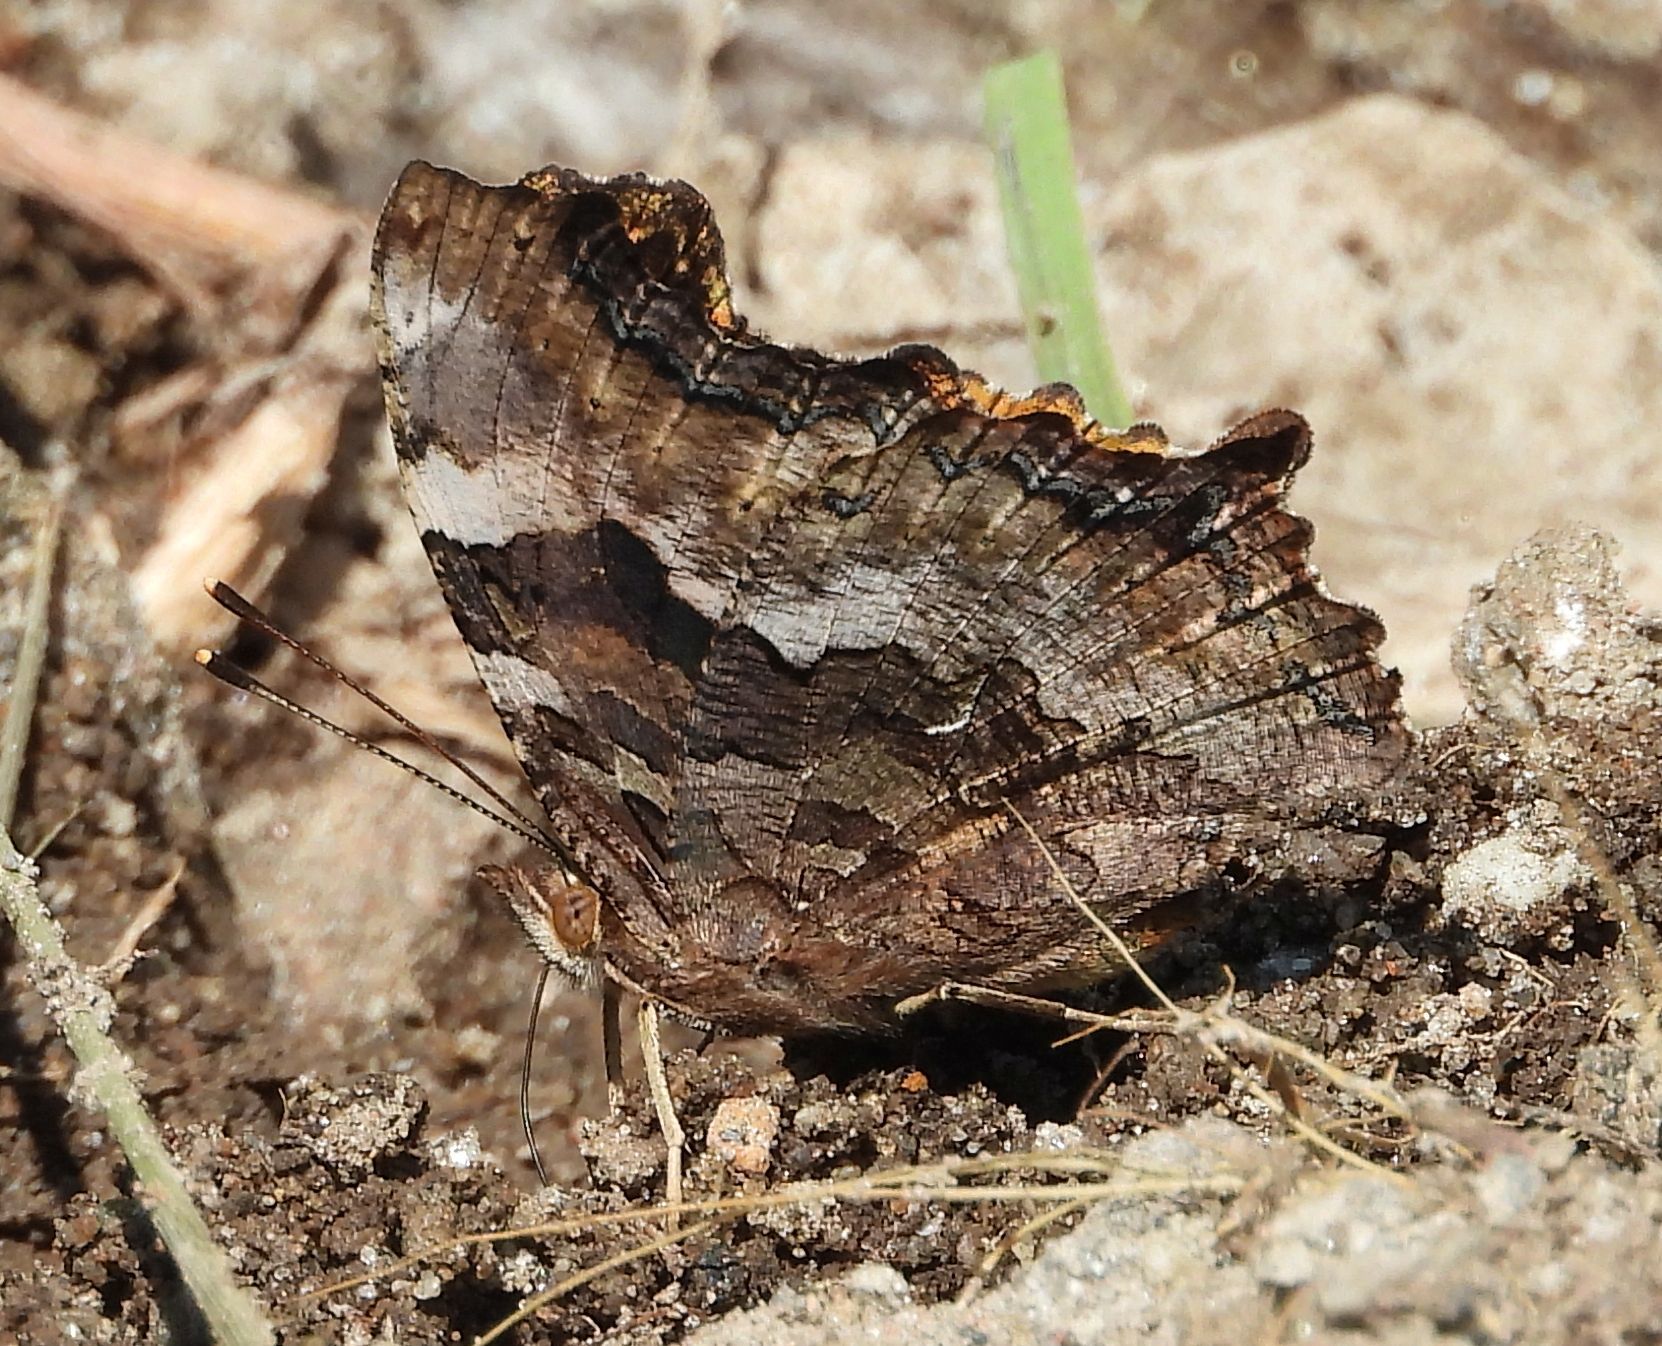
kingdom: Animalia
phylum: Arthropoda
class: Insecta
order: Lepidoptera
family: Nymphalidae
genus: Polygonia
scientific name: Polygonia vaualbum
